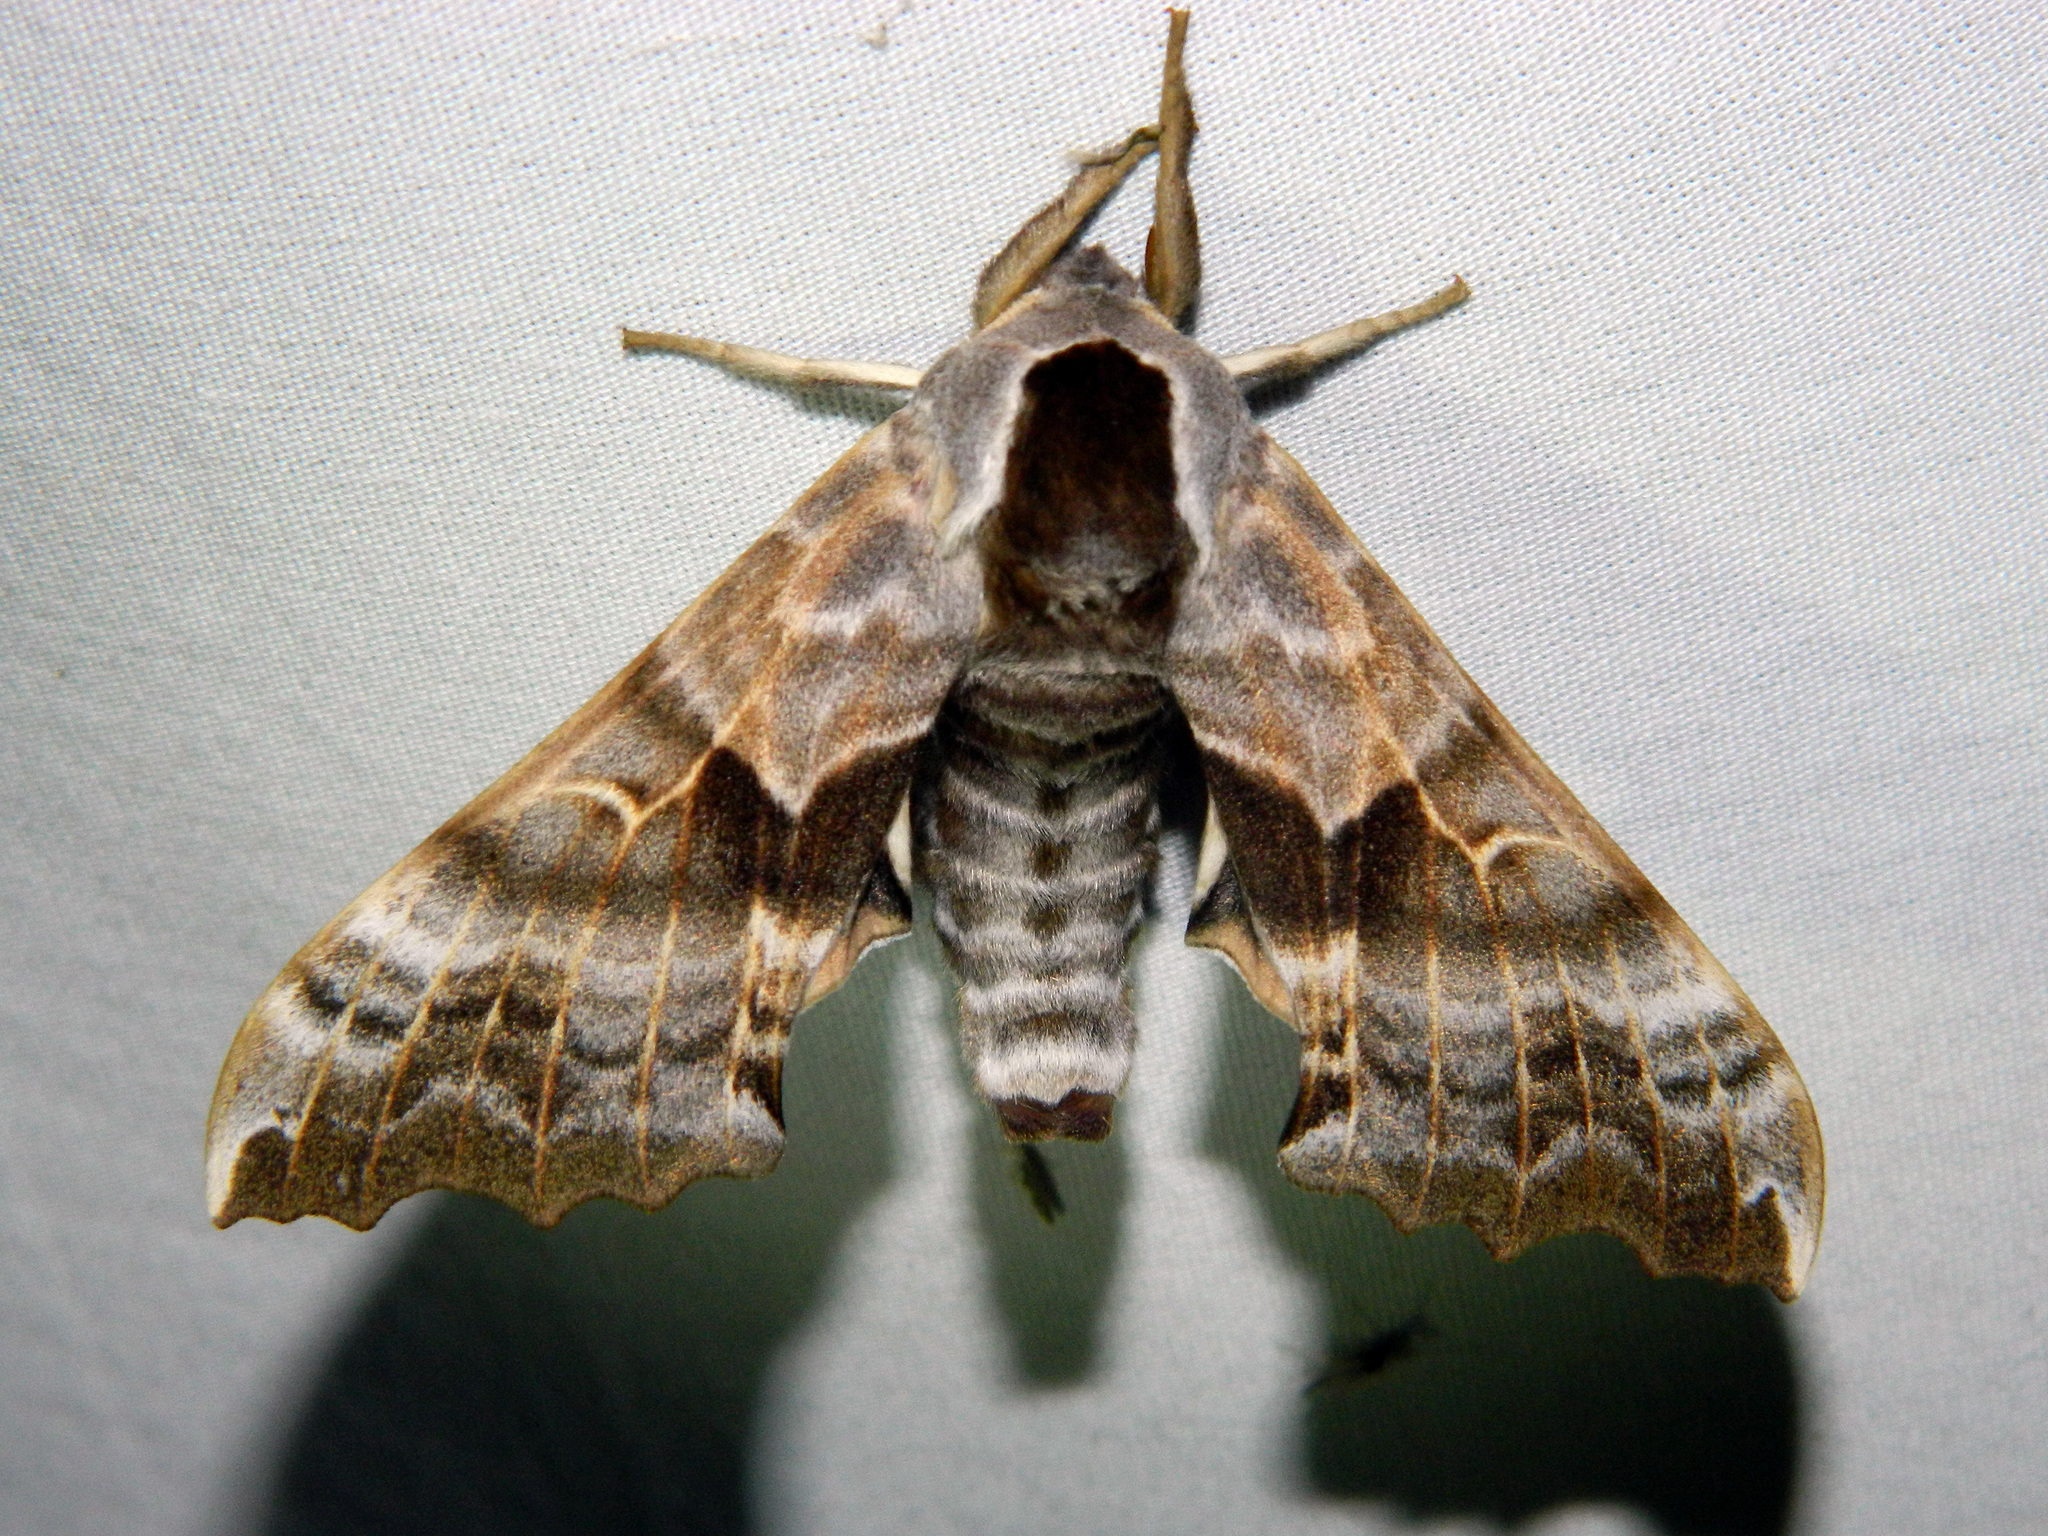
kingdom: Animalia
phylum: Arthropoda
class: Insecta
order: Lepidoptera
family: Sphingidae
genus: Smerinthus
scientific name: Smerinthus cerisyi
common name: Cerisy's sphinx moth
